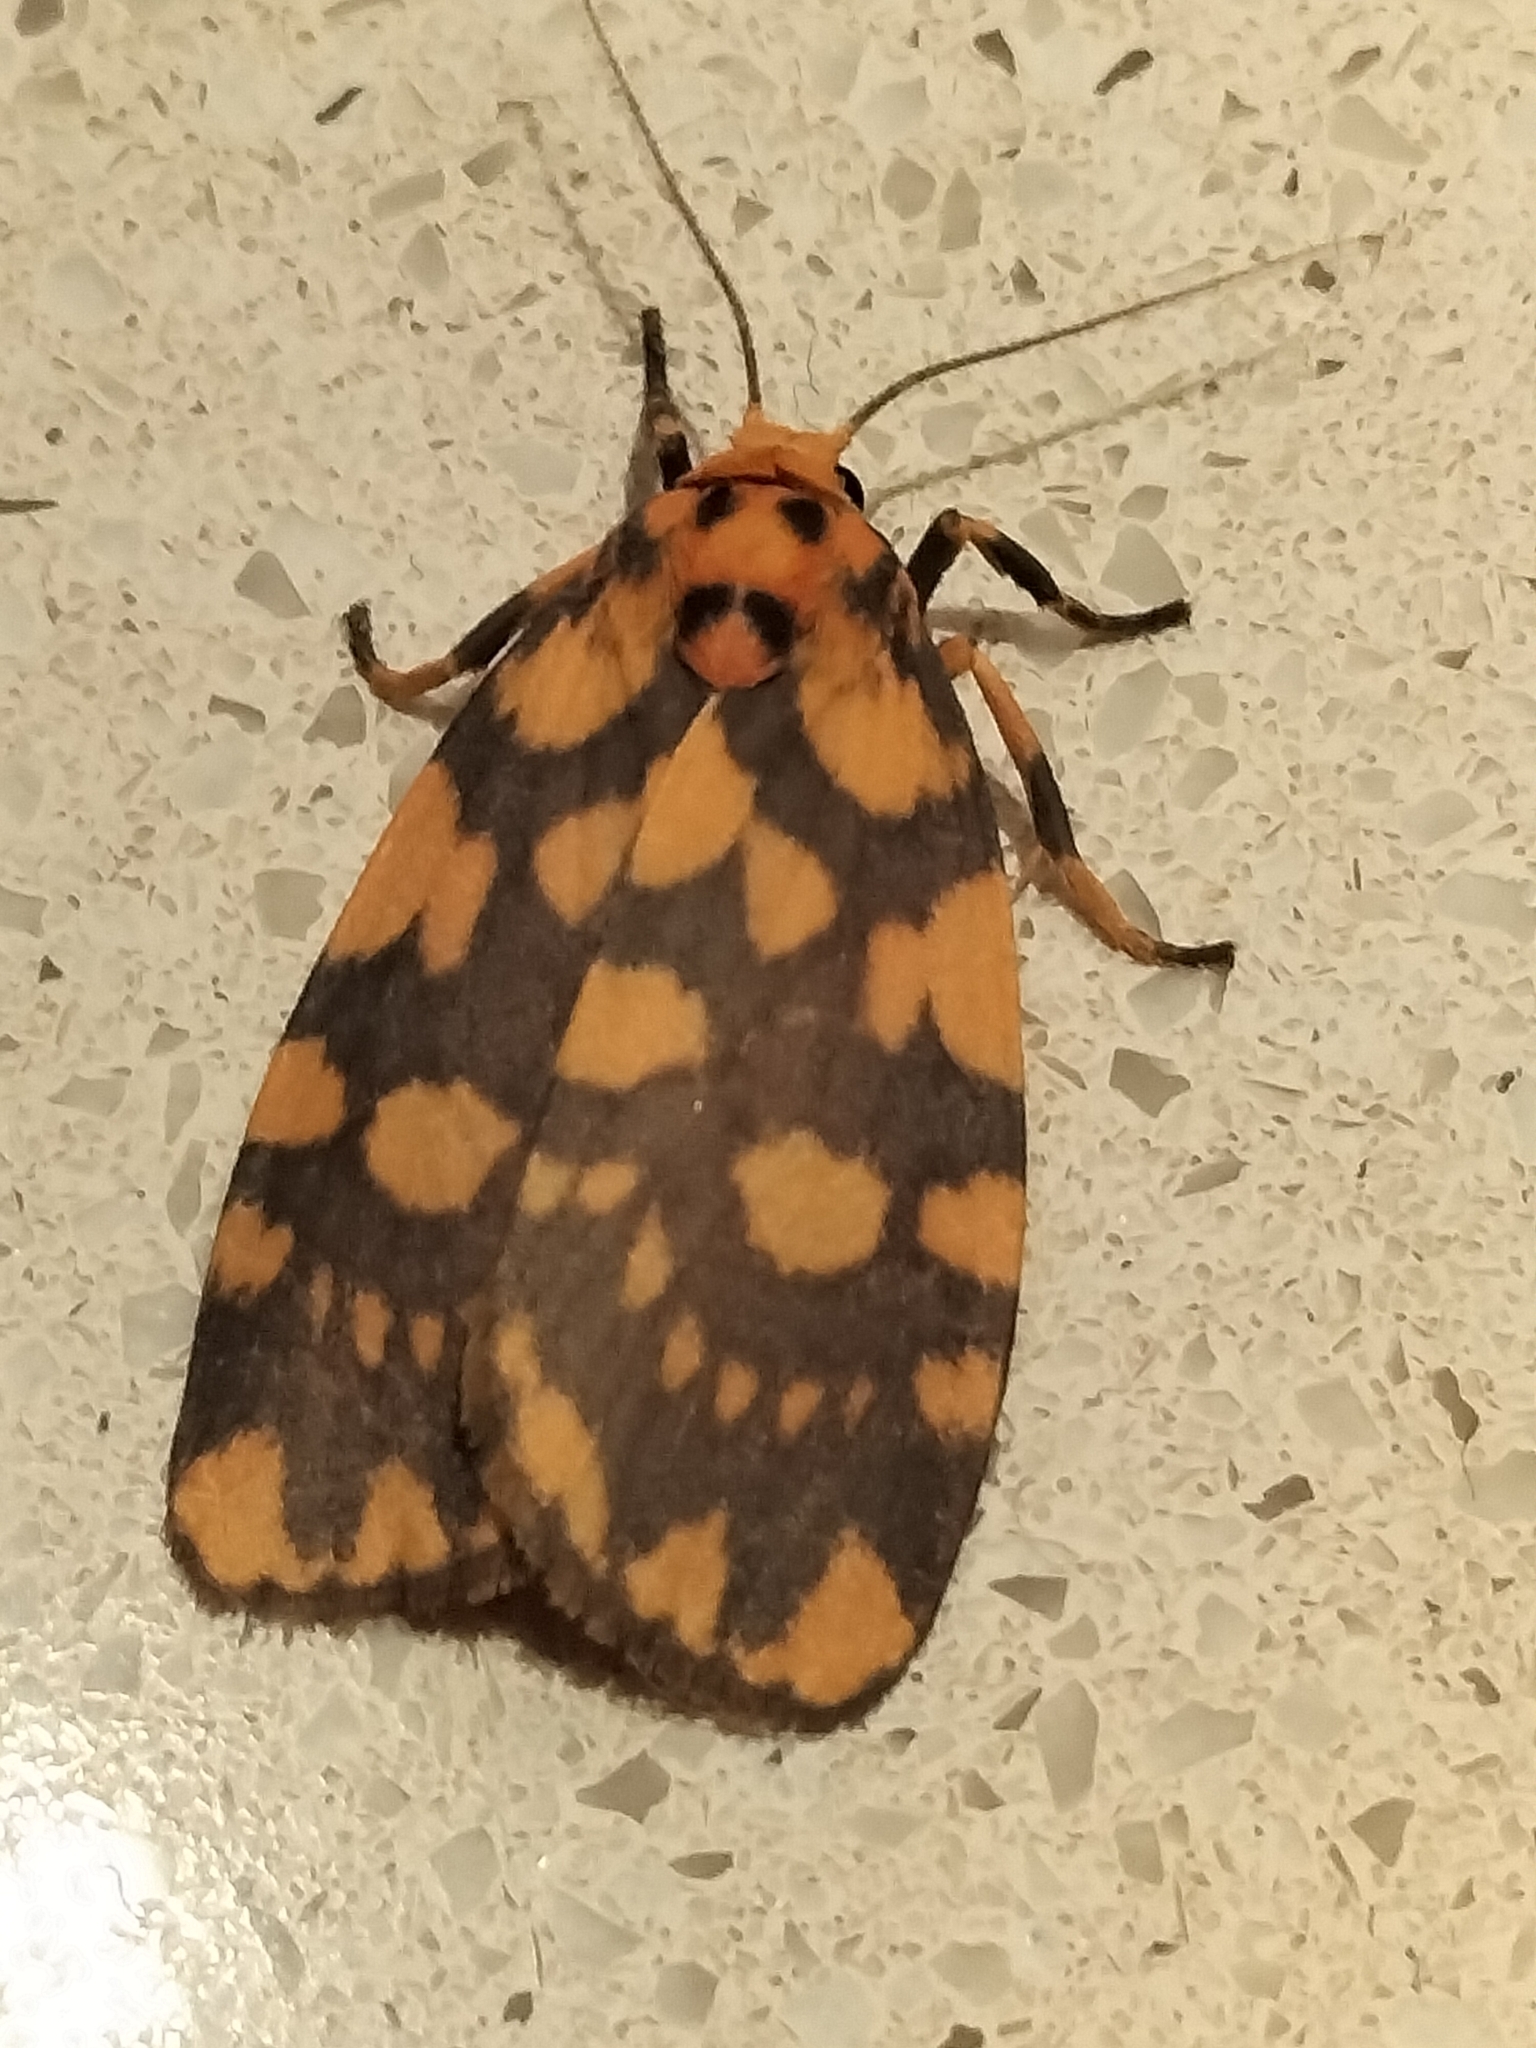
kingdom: Animalia
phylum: Arthropoda
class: Insecta
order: Lepidoptera
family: Erebidae
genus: Cyme
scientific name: Cyme quadrilineata
